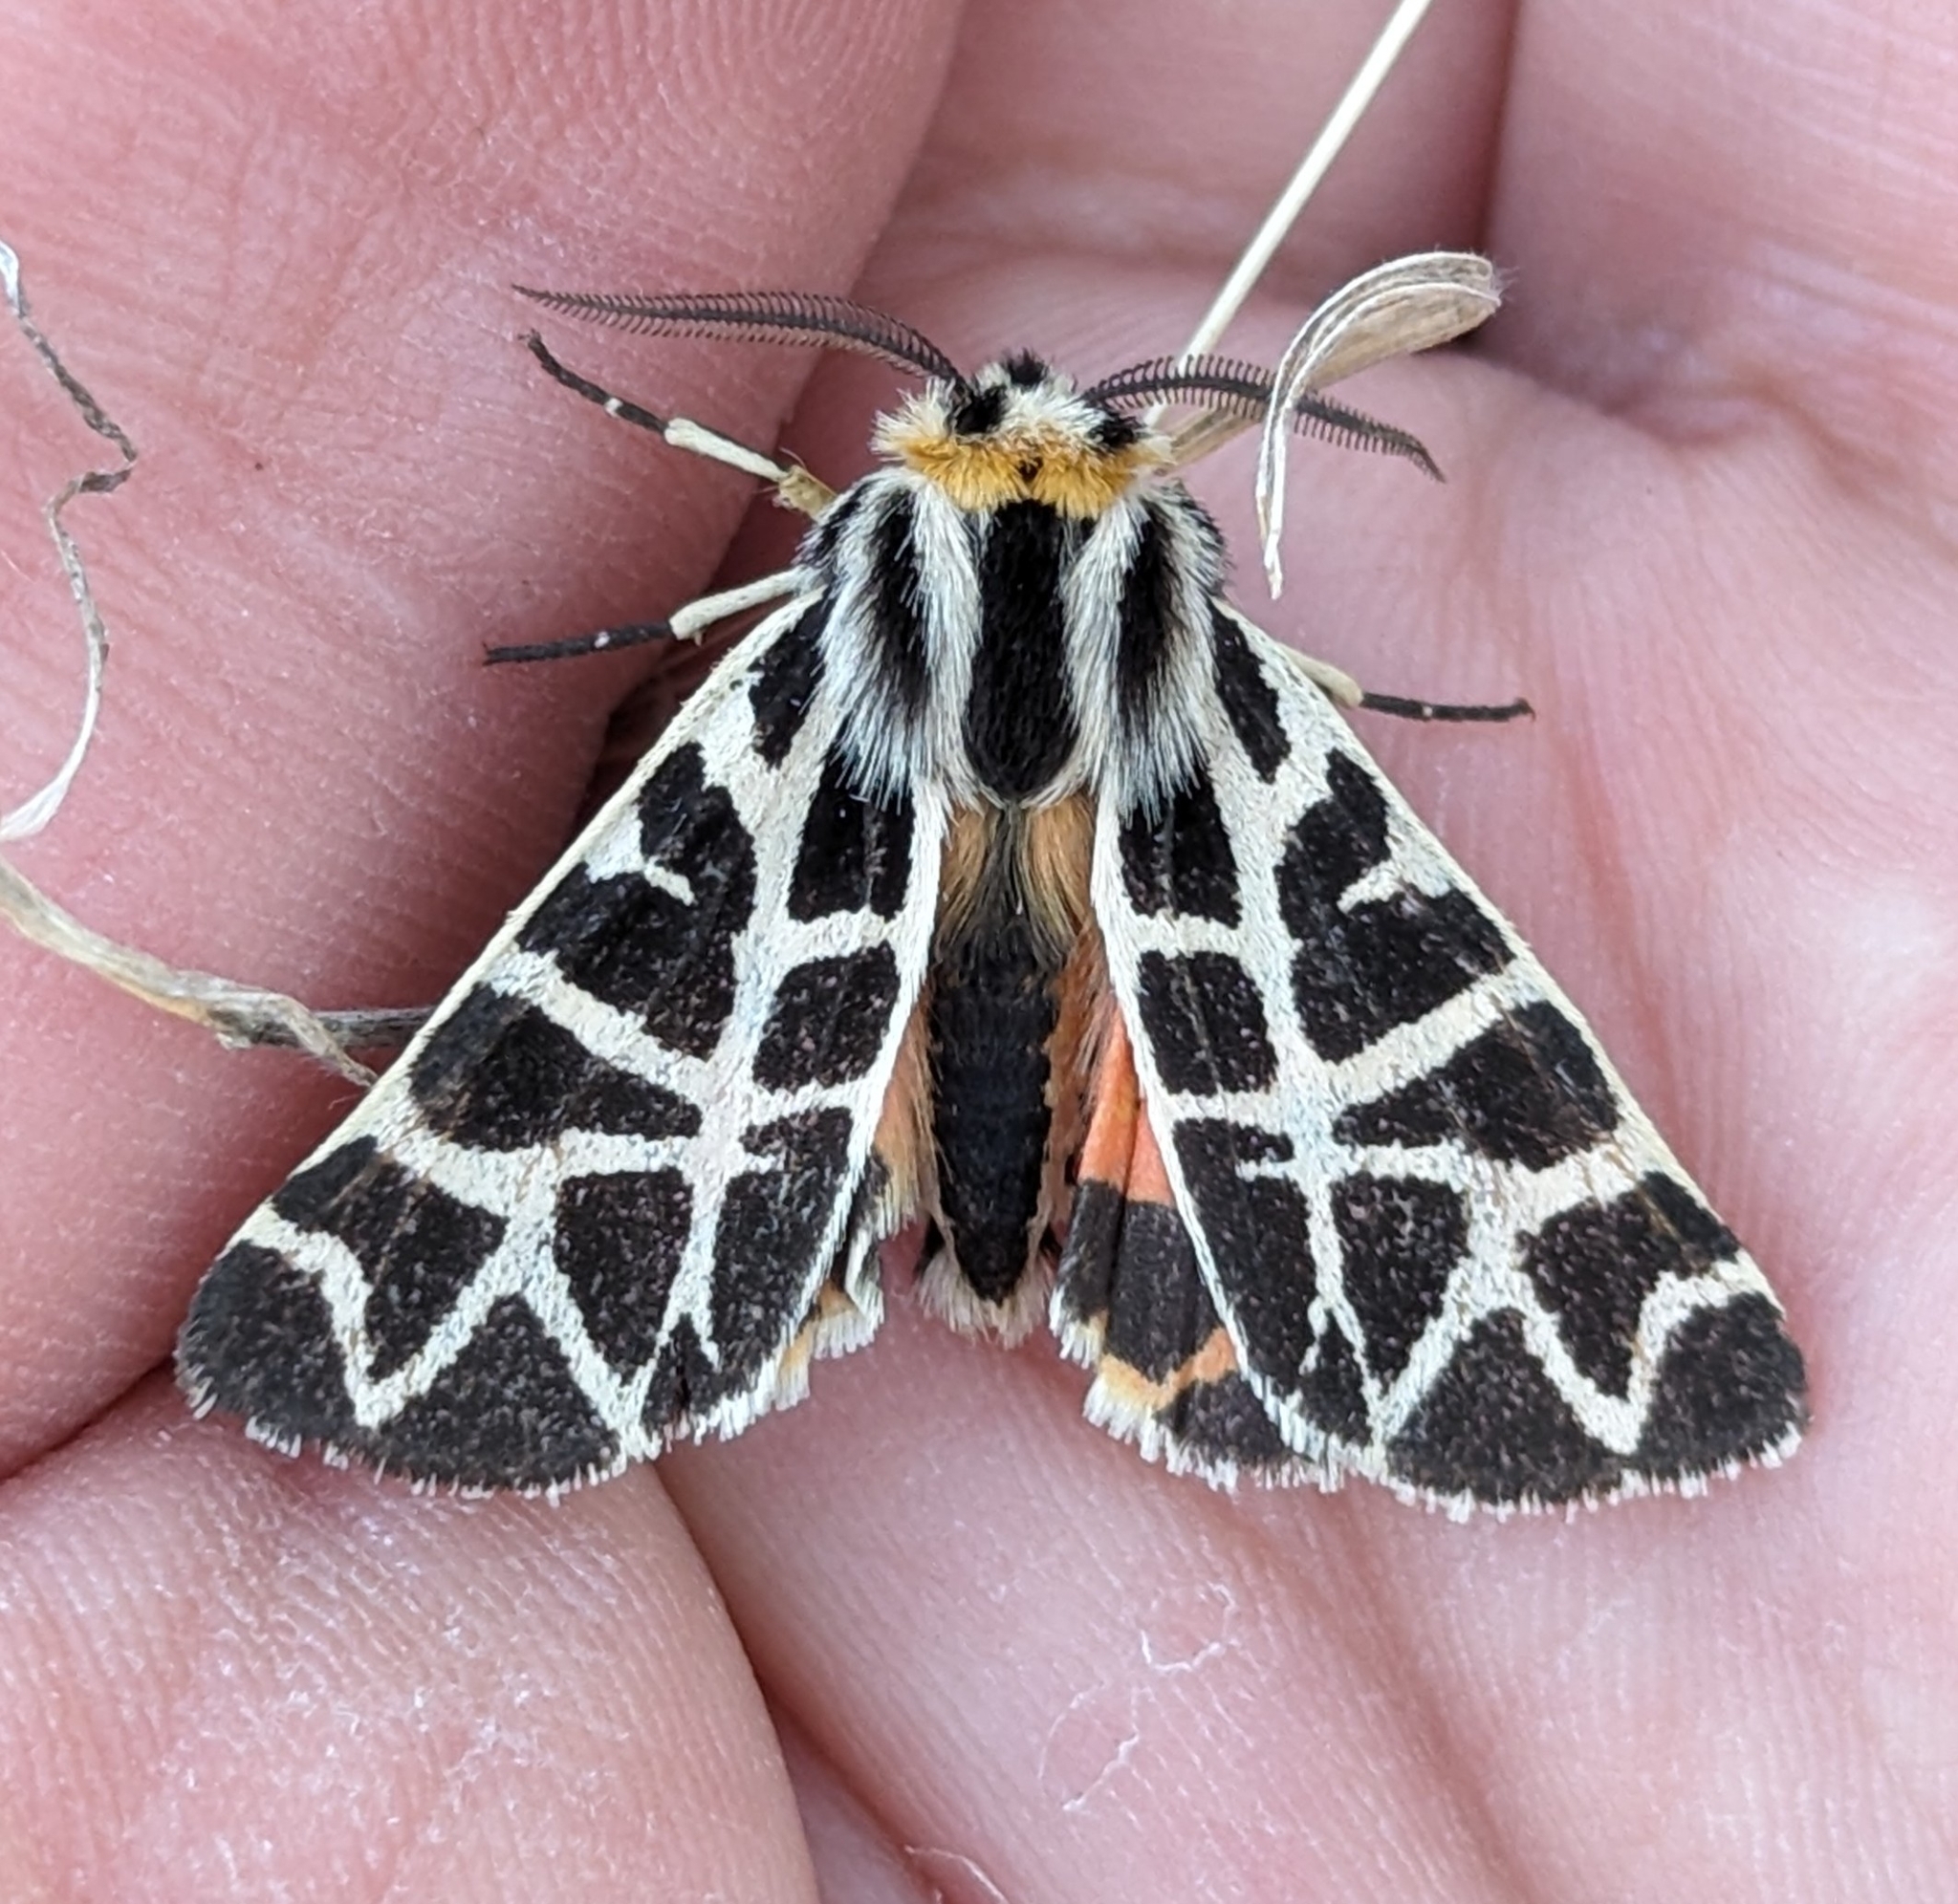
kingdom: Animalia
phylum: Arthropoda
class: Insecta
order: Lepidoptera
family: Erebidae
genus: Apantesis
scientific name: Apantesis
